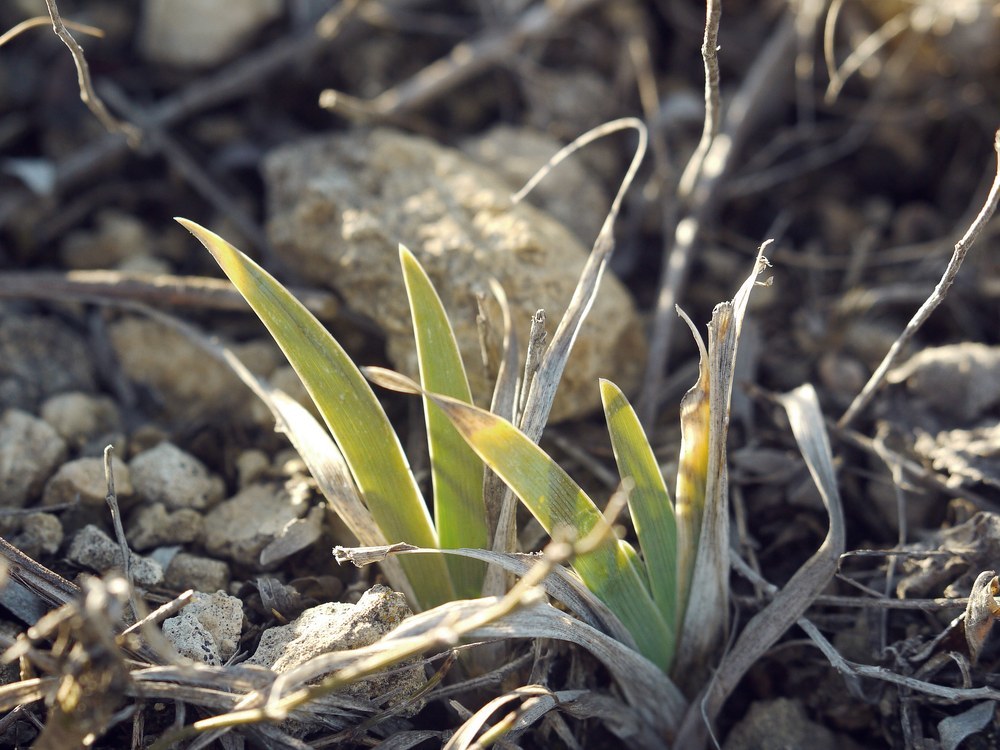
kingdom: Plantae
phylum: Tracheophyta
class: Liliopsida
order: Asparagales
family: Iridaceae
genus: Iris
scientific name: Iris pumila
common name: Dwarf iris
